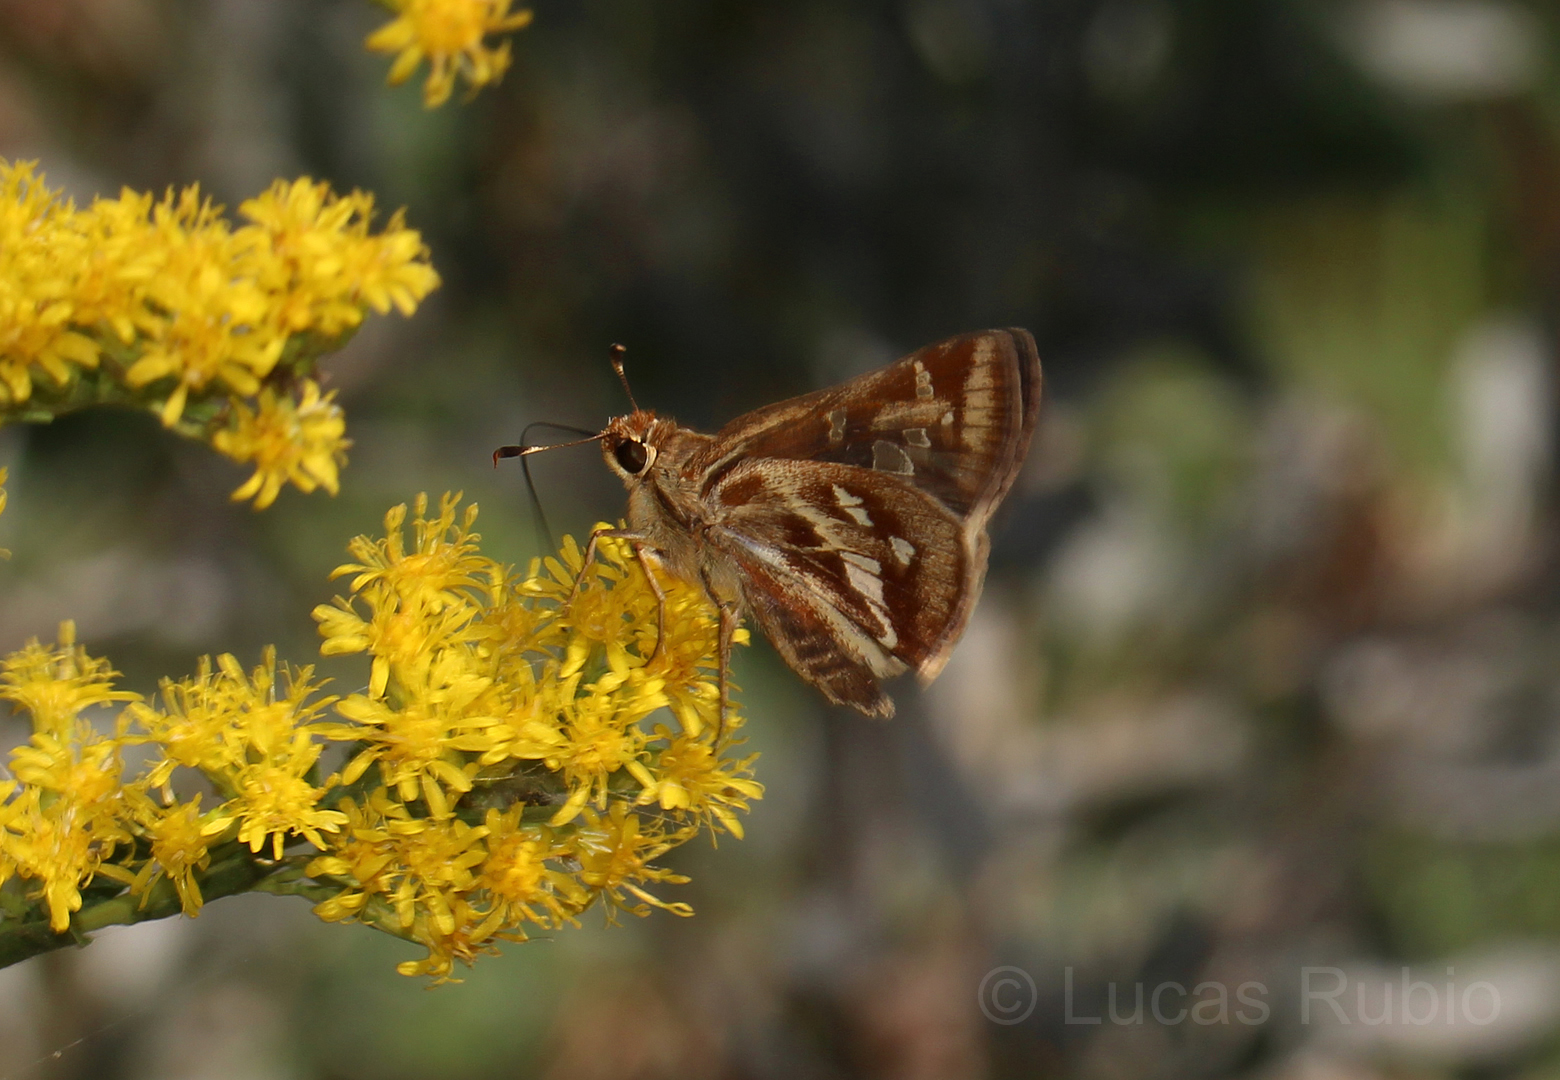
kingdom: Animalia
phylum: Arthropoda
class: Insecta
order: Lepidoptera
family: Hesperiidae
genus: Thespieus
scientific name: Thespieus catochra
